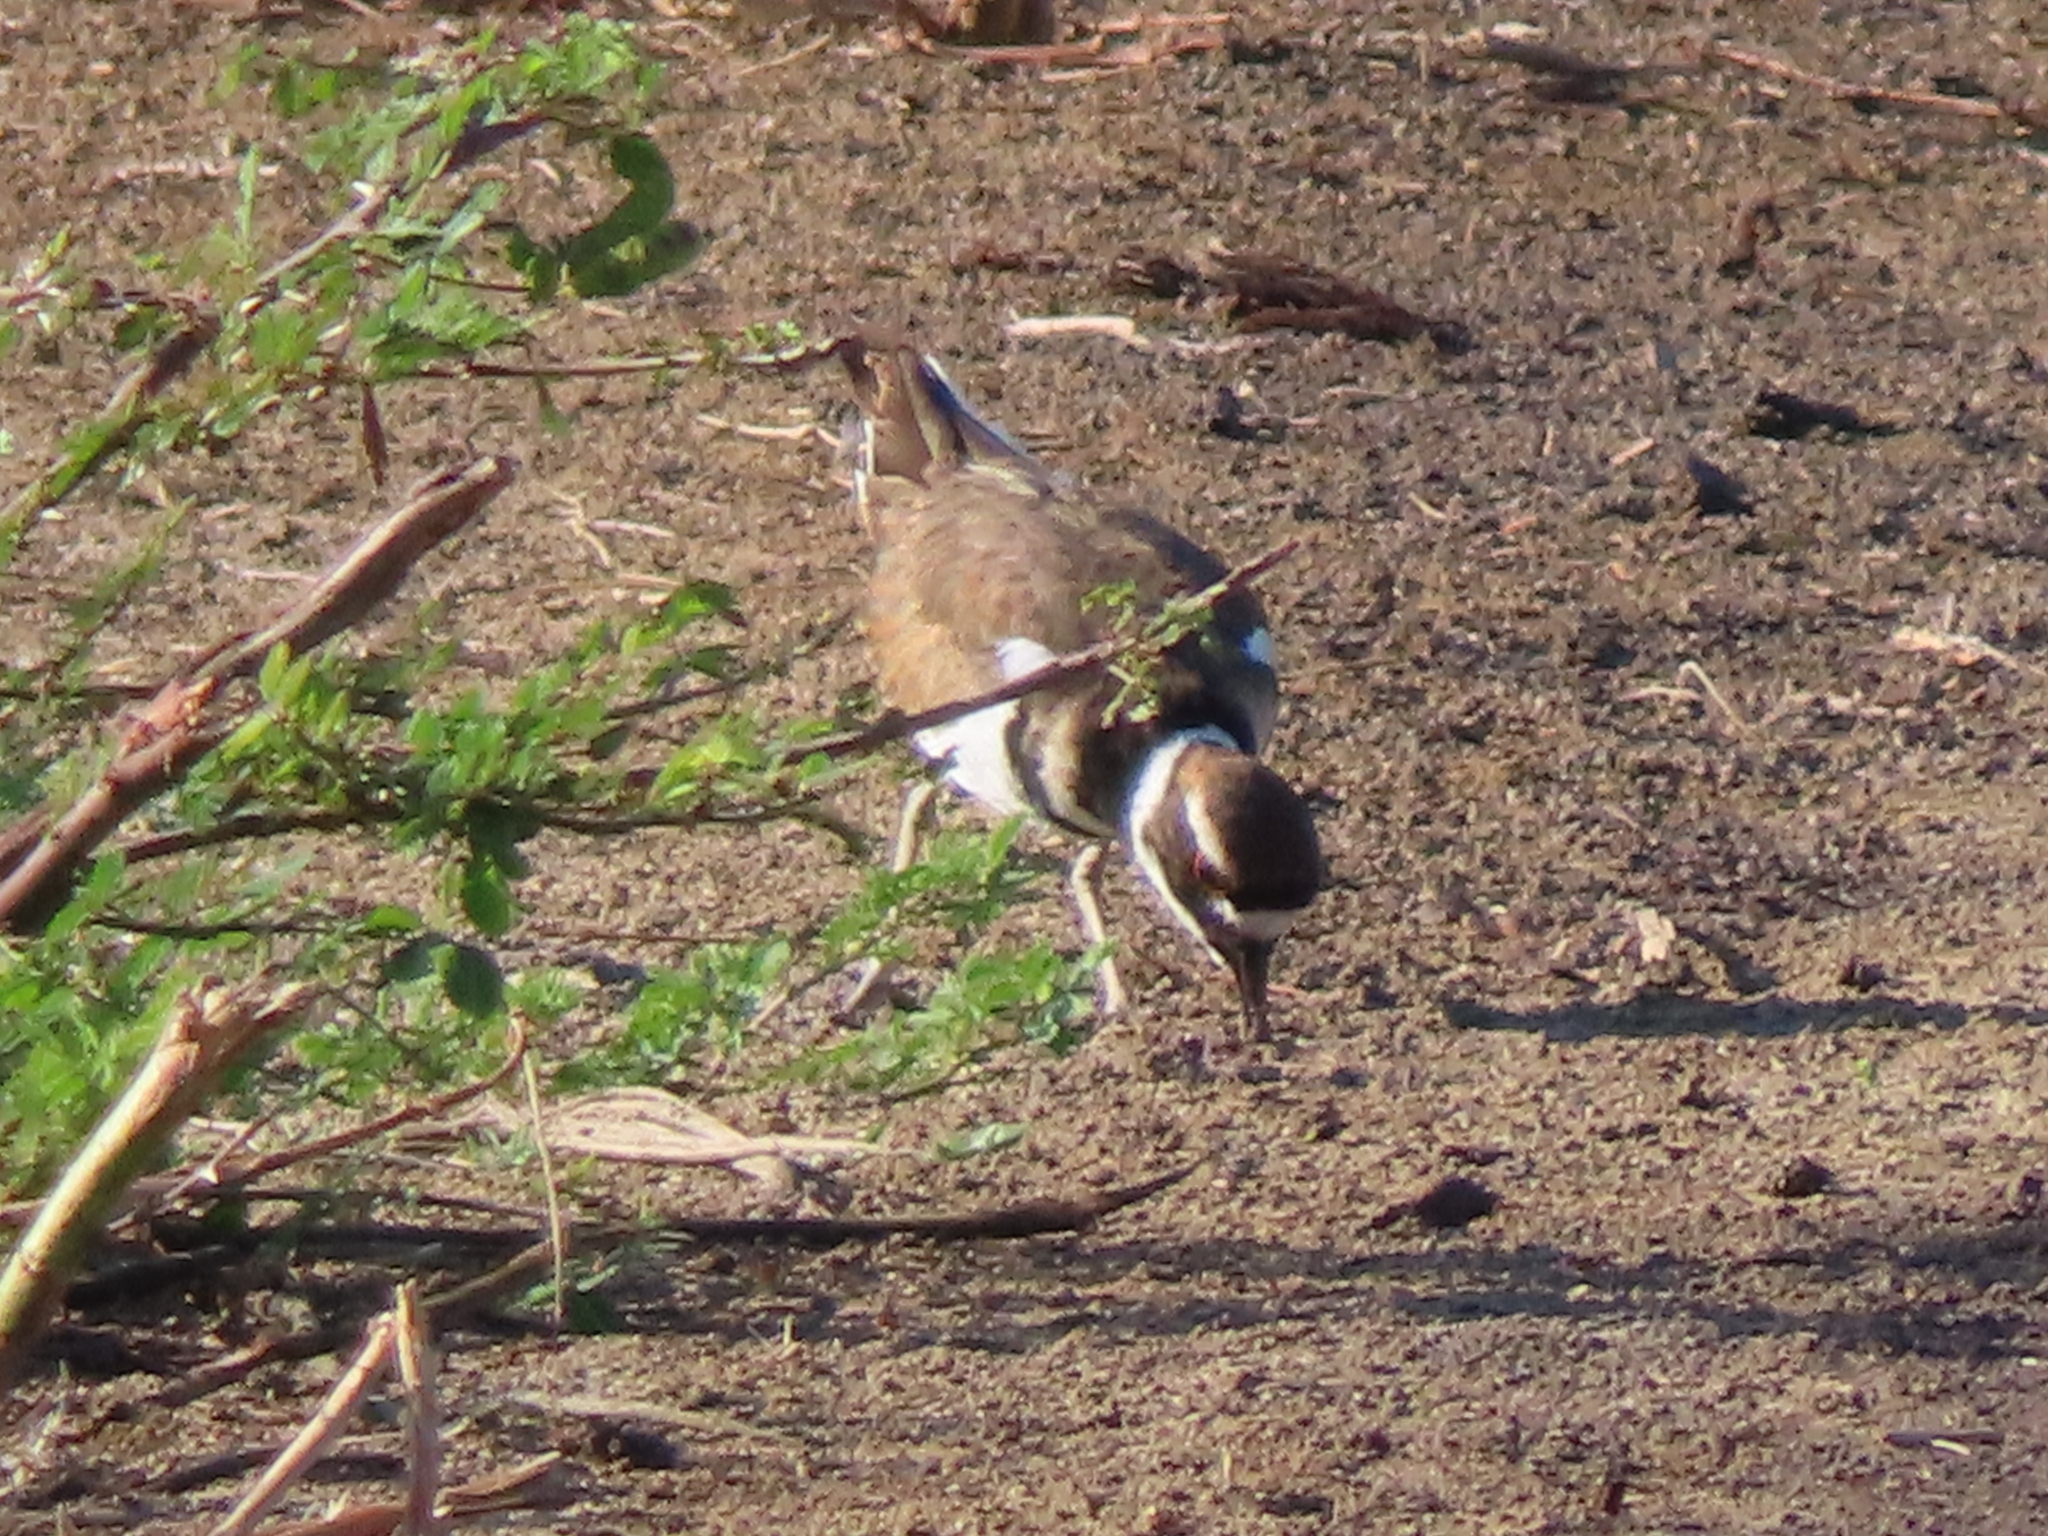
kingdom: Animalia
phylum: Chordata
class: Aves
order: Charadriiformes
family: Charadriidae
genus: Charadrius
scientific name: Charadrius vociferus
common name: Killdeer
